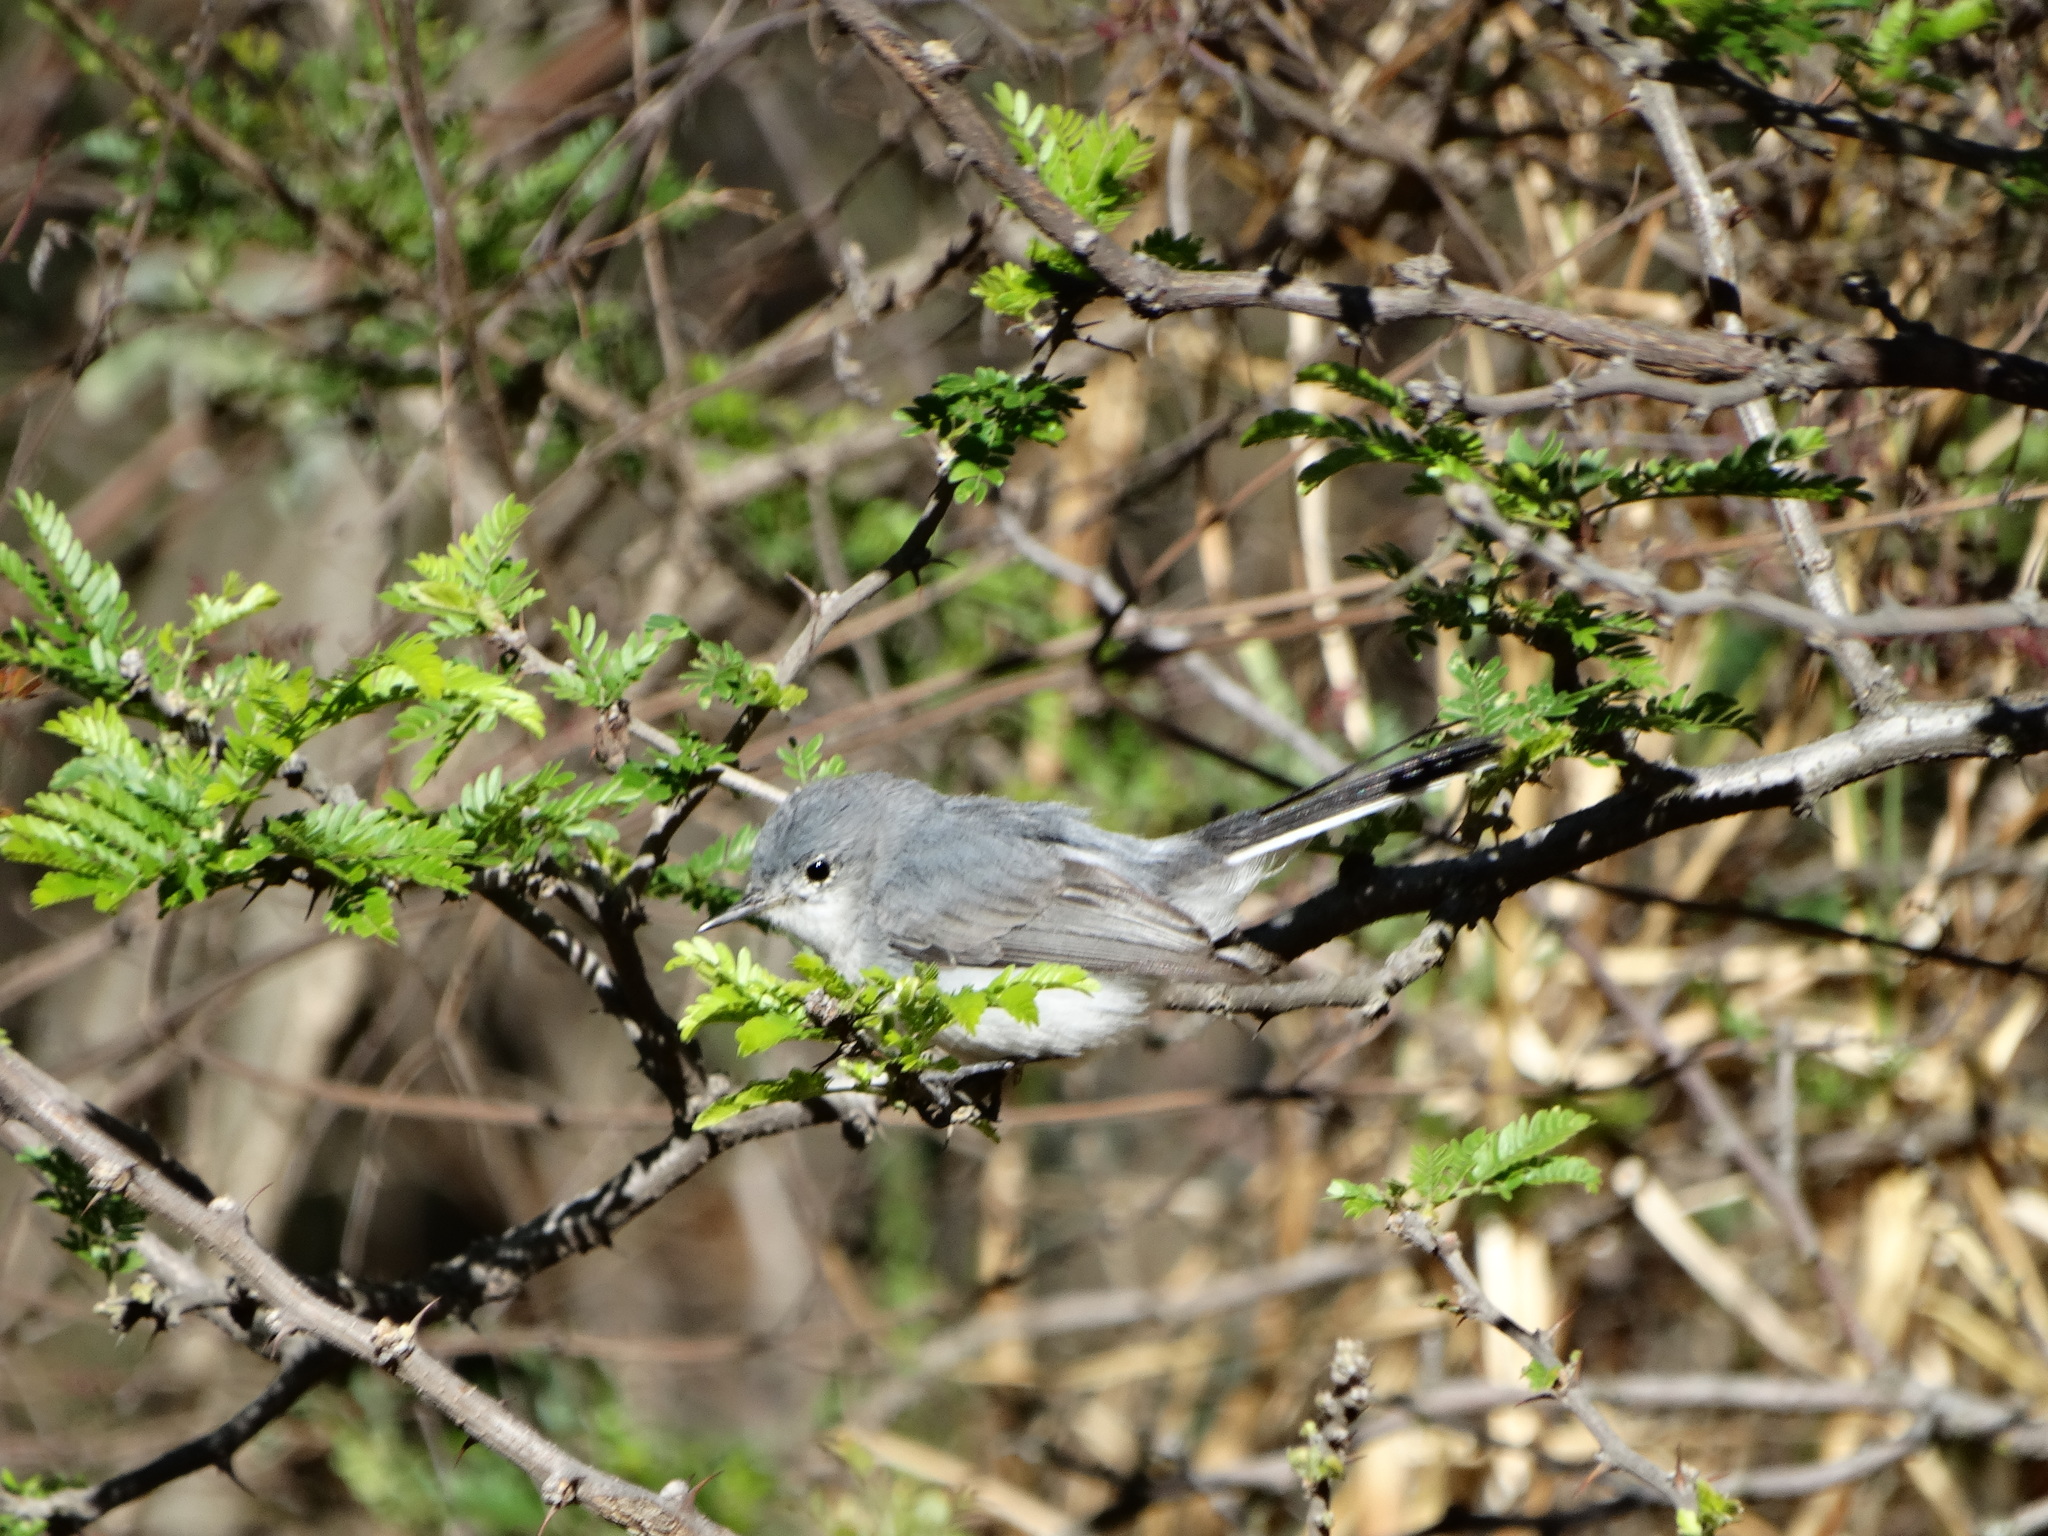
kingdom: Animalia
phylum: Chordata
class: Aves
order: Passeriformes
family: Polioptilidae
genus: Polioptila
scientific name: Polioptila caerulea
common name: Blue-gray gnatcatcher
